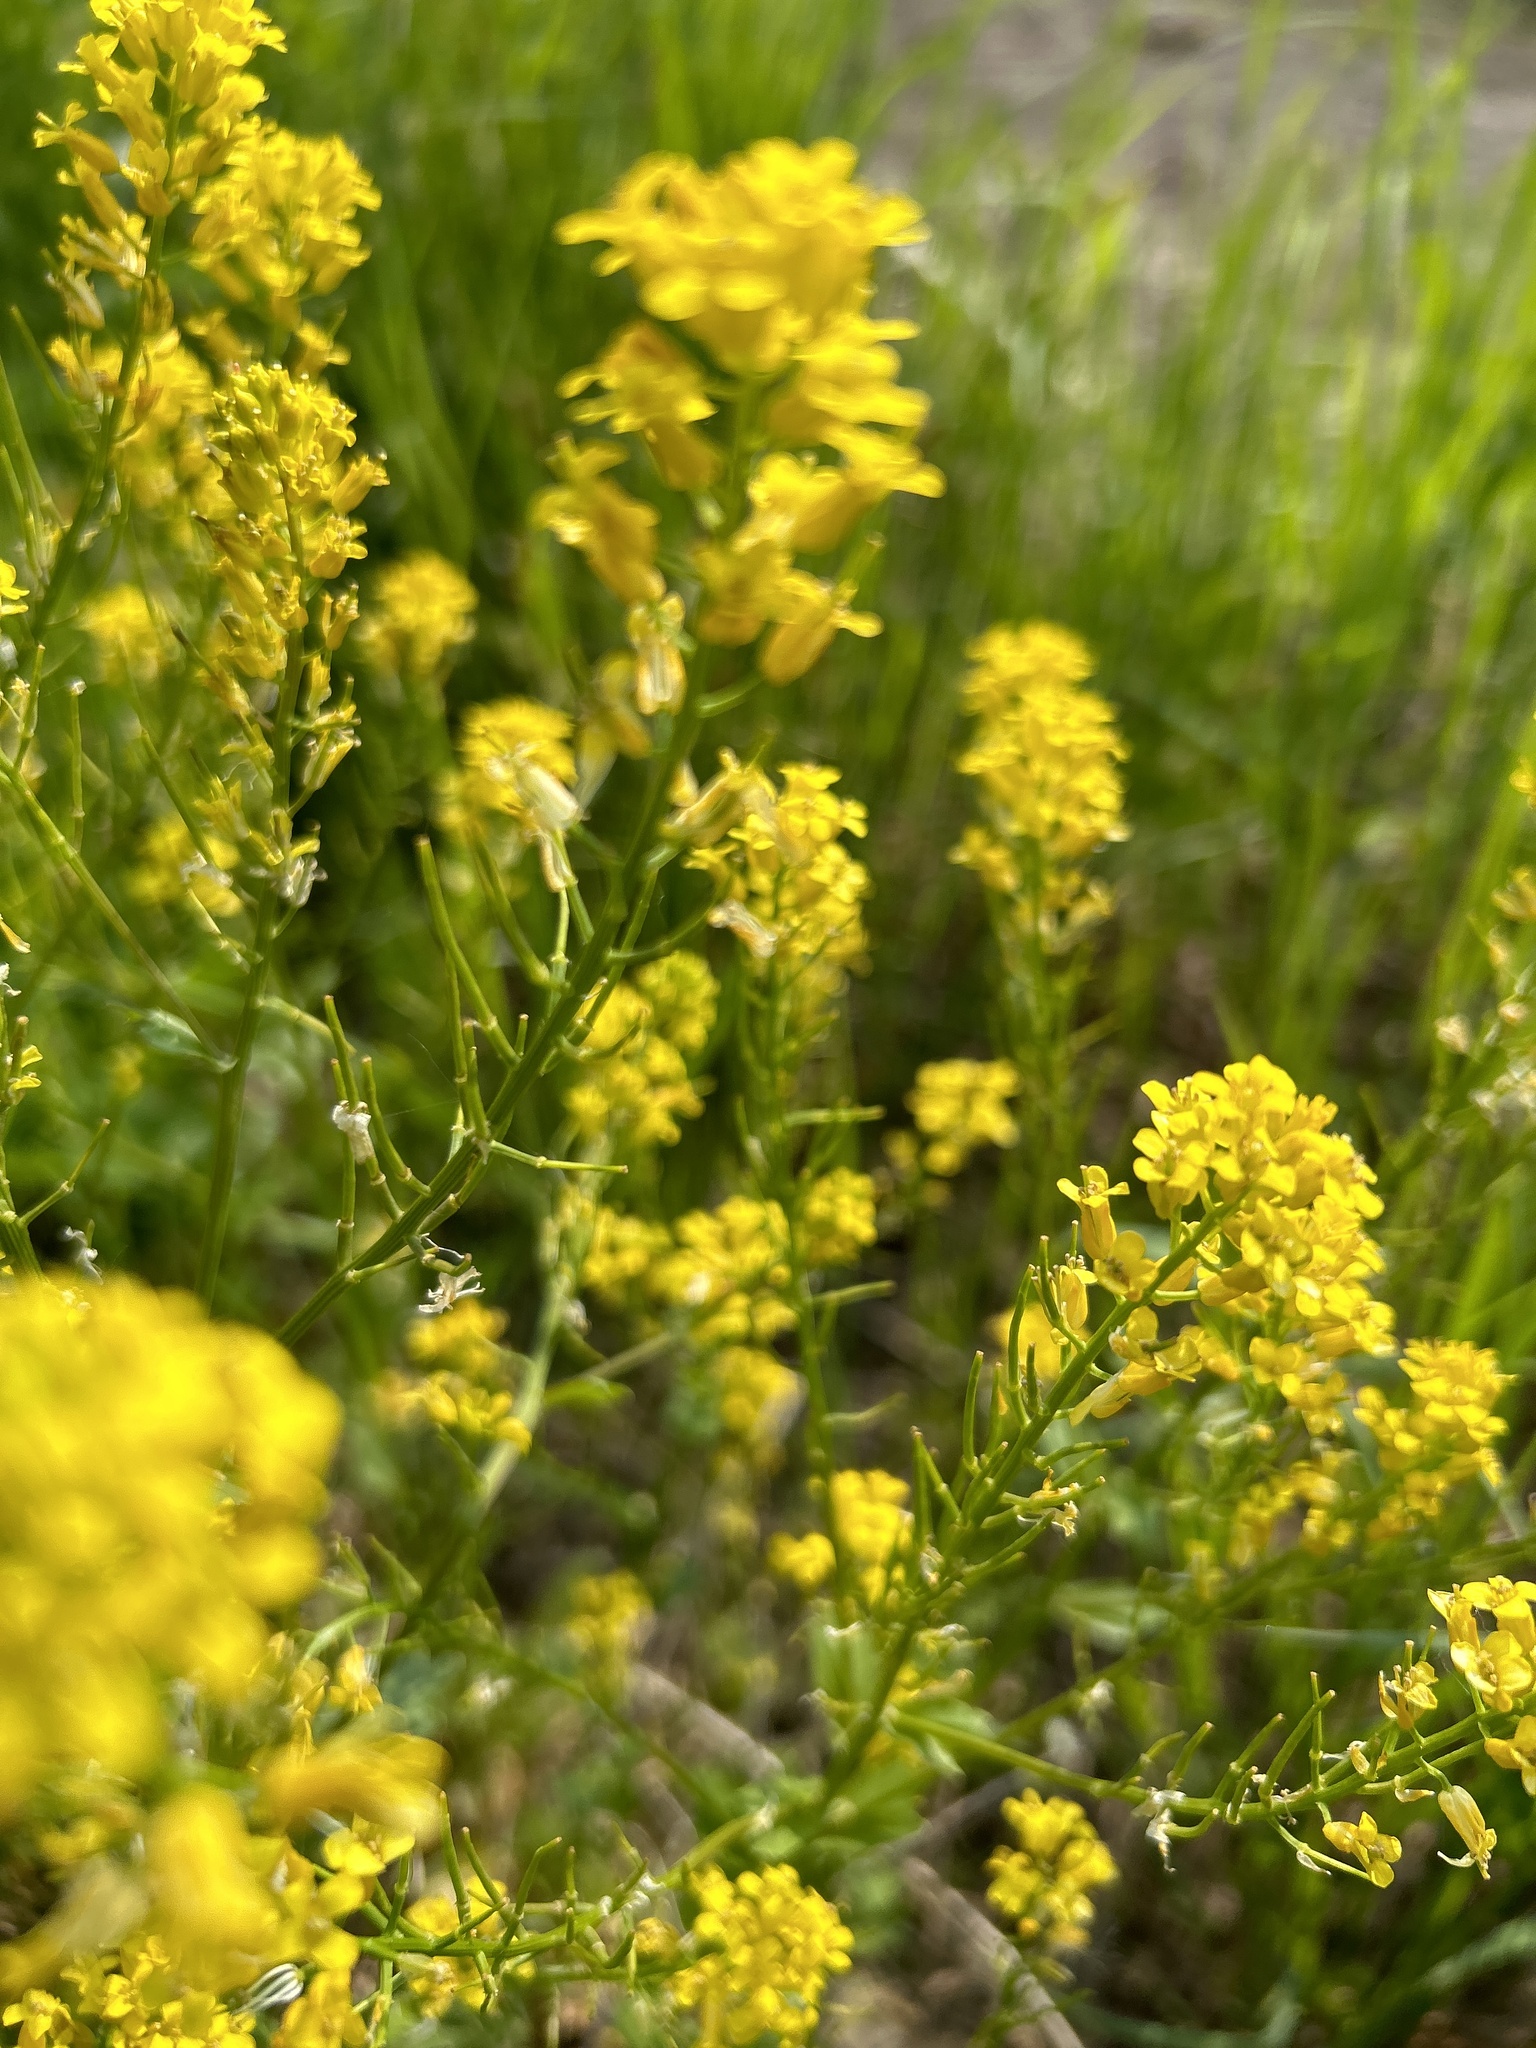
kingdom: Plantae
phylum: Tracheophyta
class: Magnoliopsida
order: Brassicales
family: Brassicaceae
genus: Barbarea
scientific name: Barbarea vulgaris
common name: Cressy-greens
